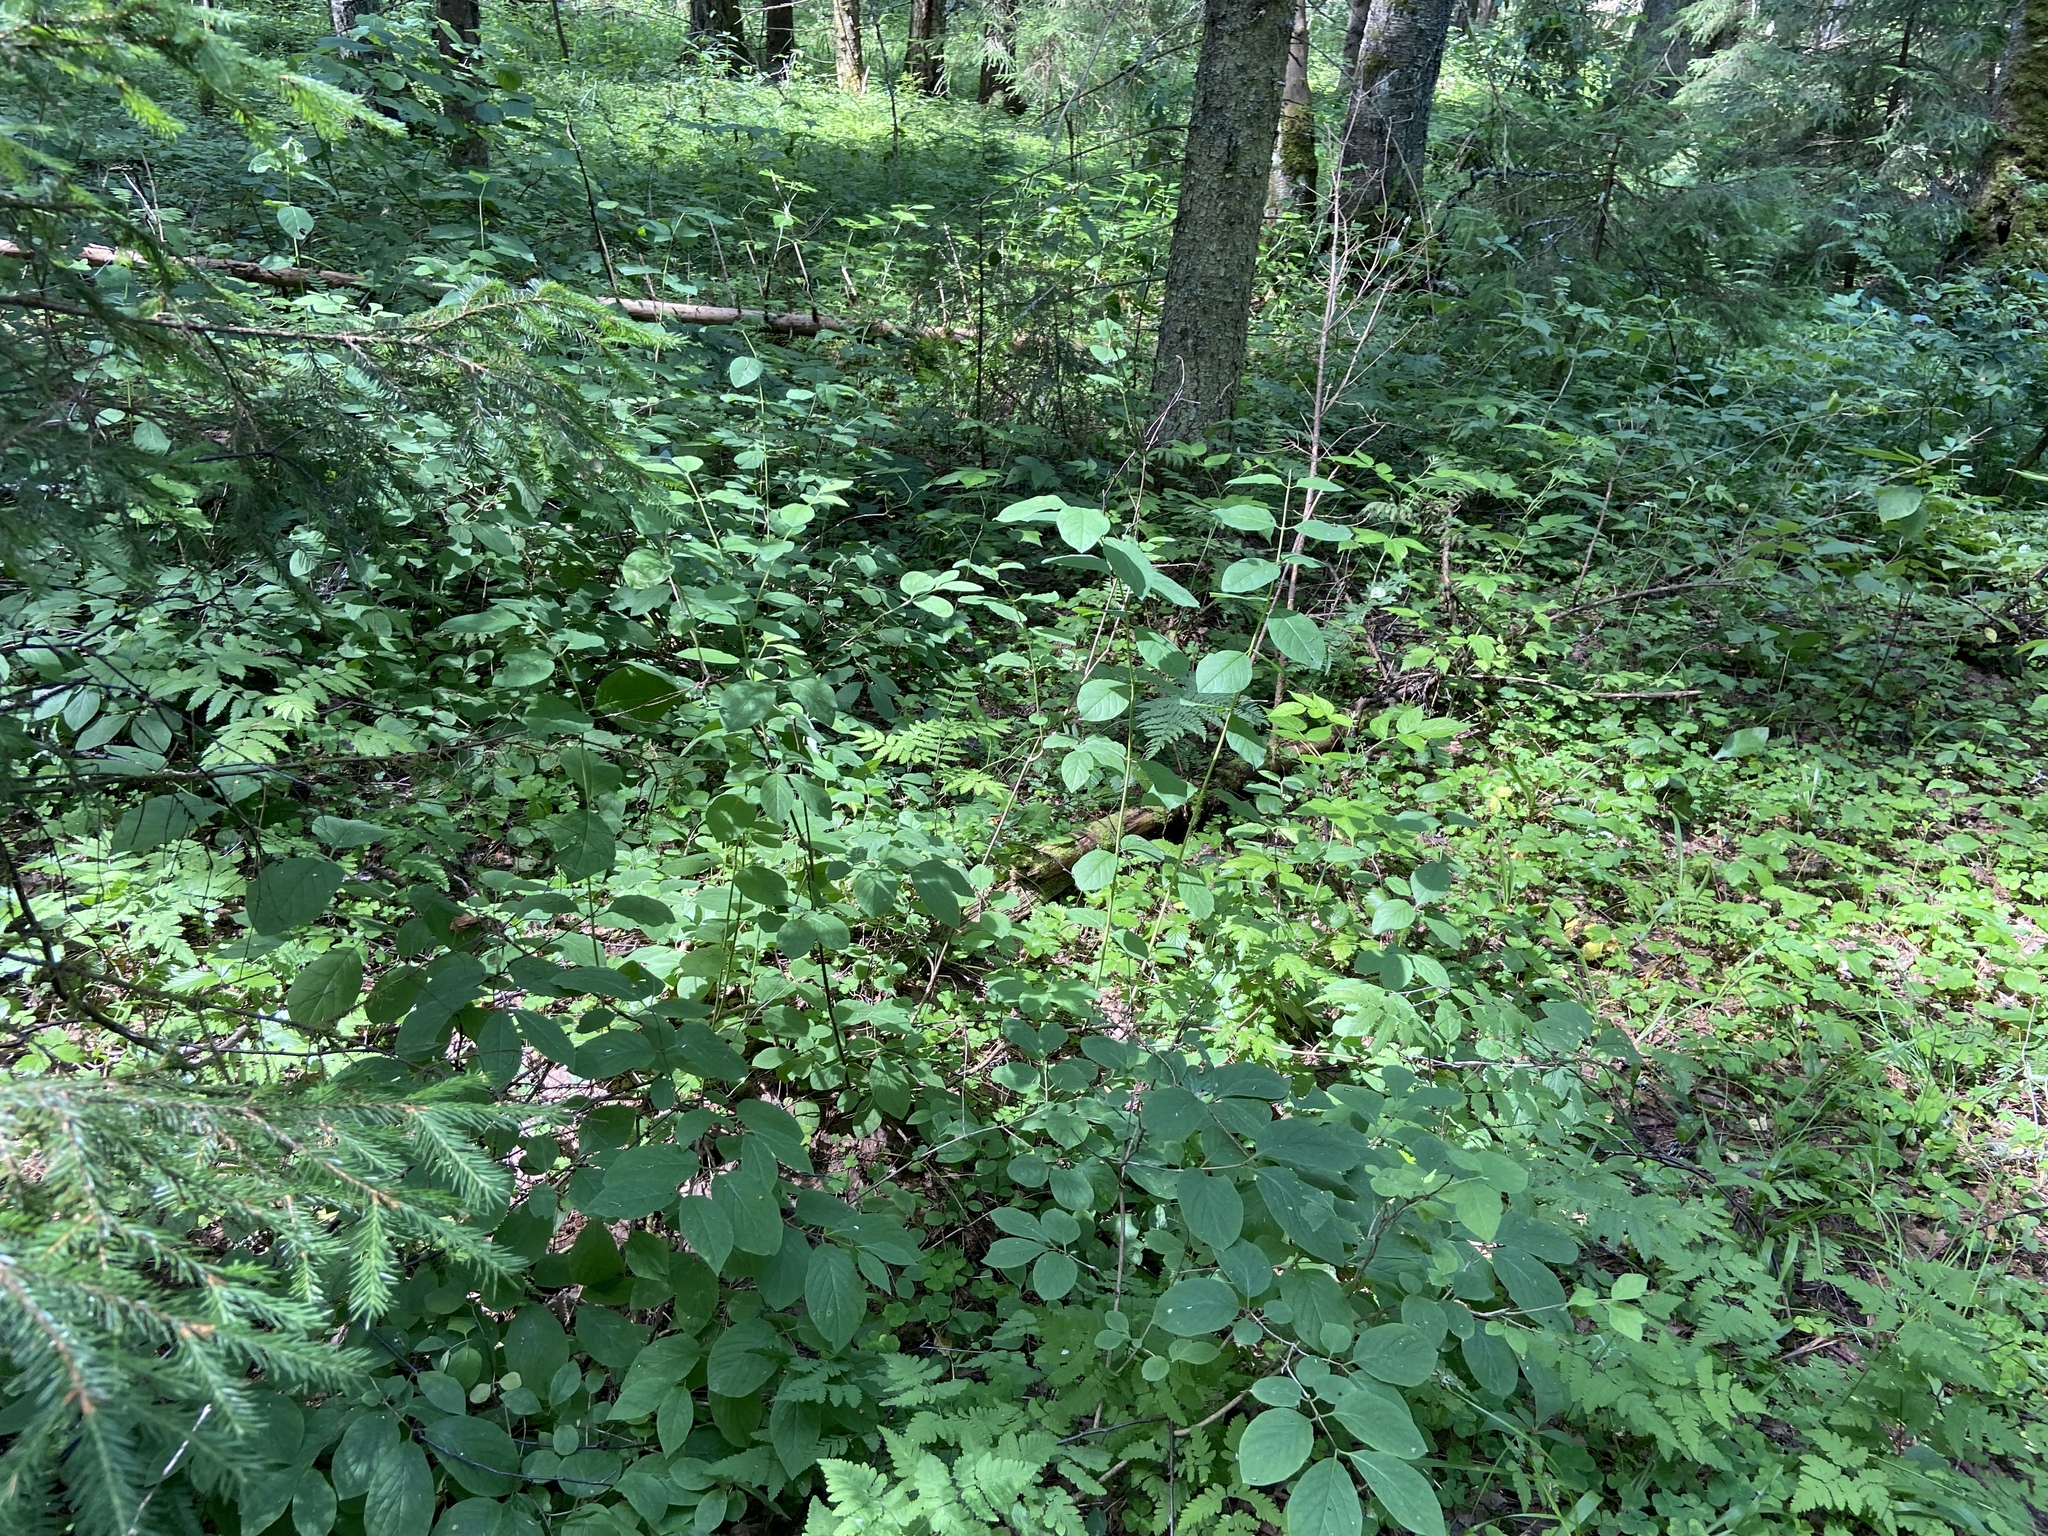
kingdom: Plantae
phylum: Tracheophyta
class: Magnoliopsida
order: Dipsacales
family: Caprifoliaceae
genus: Lonicera
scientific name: Lonicera xylosteum
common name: Fly honeysuckle
